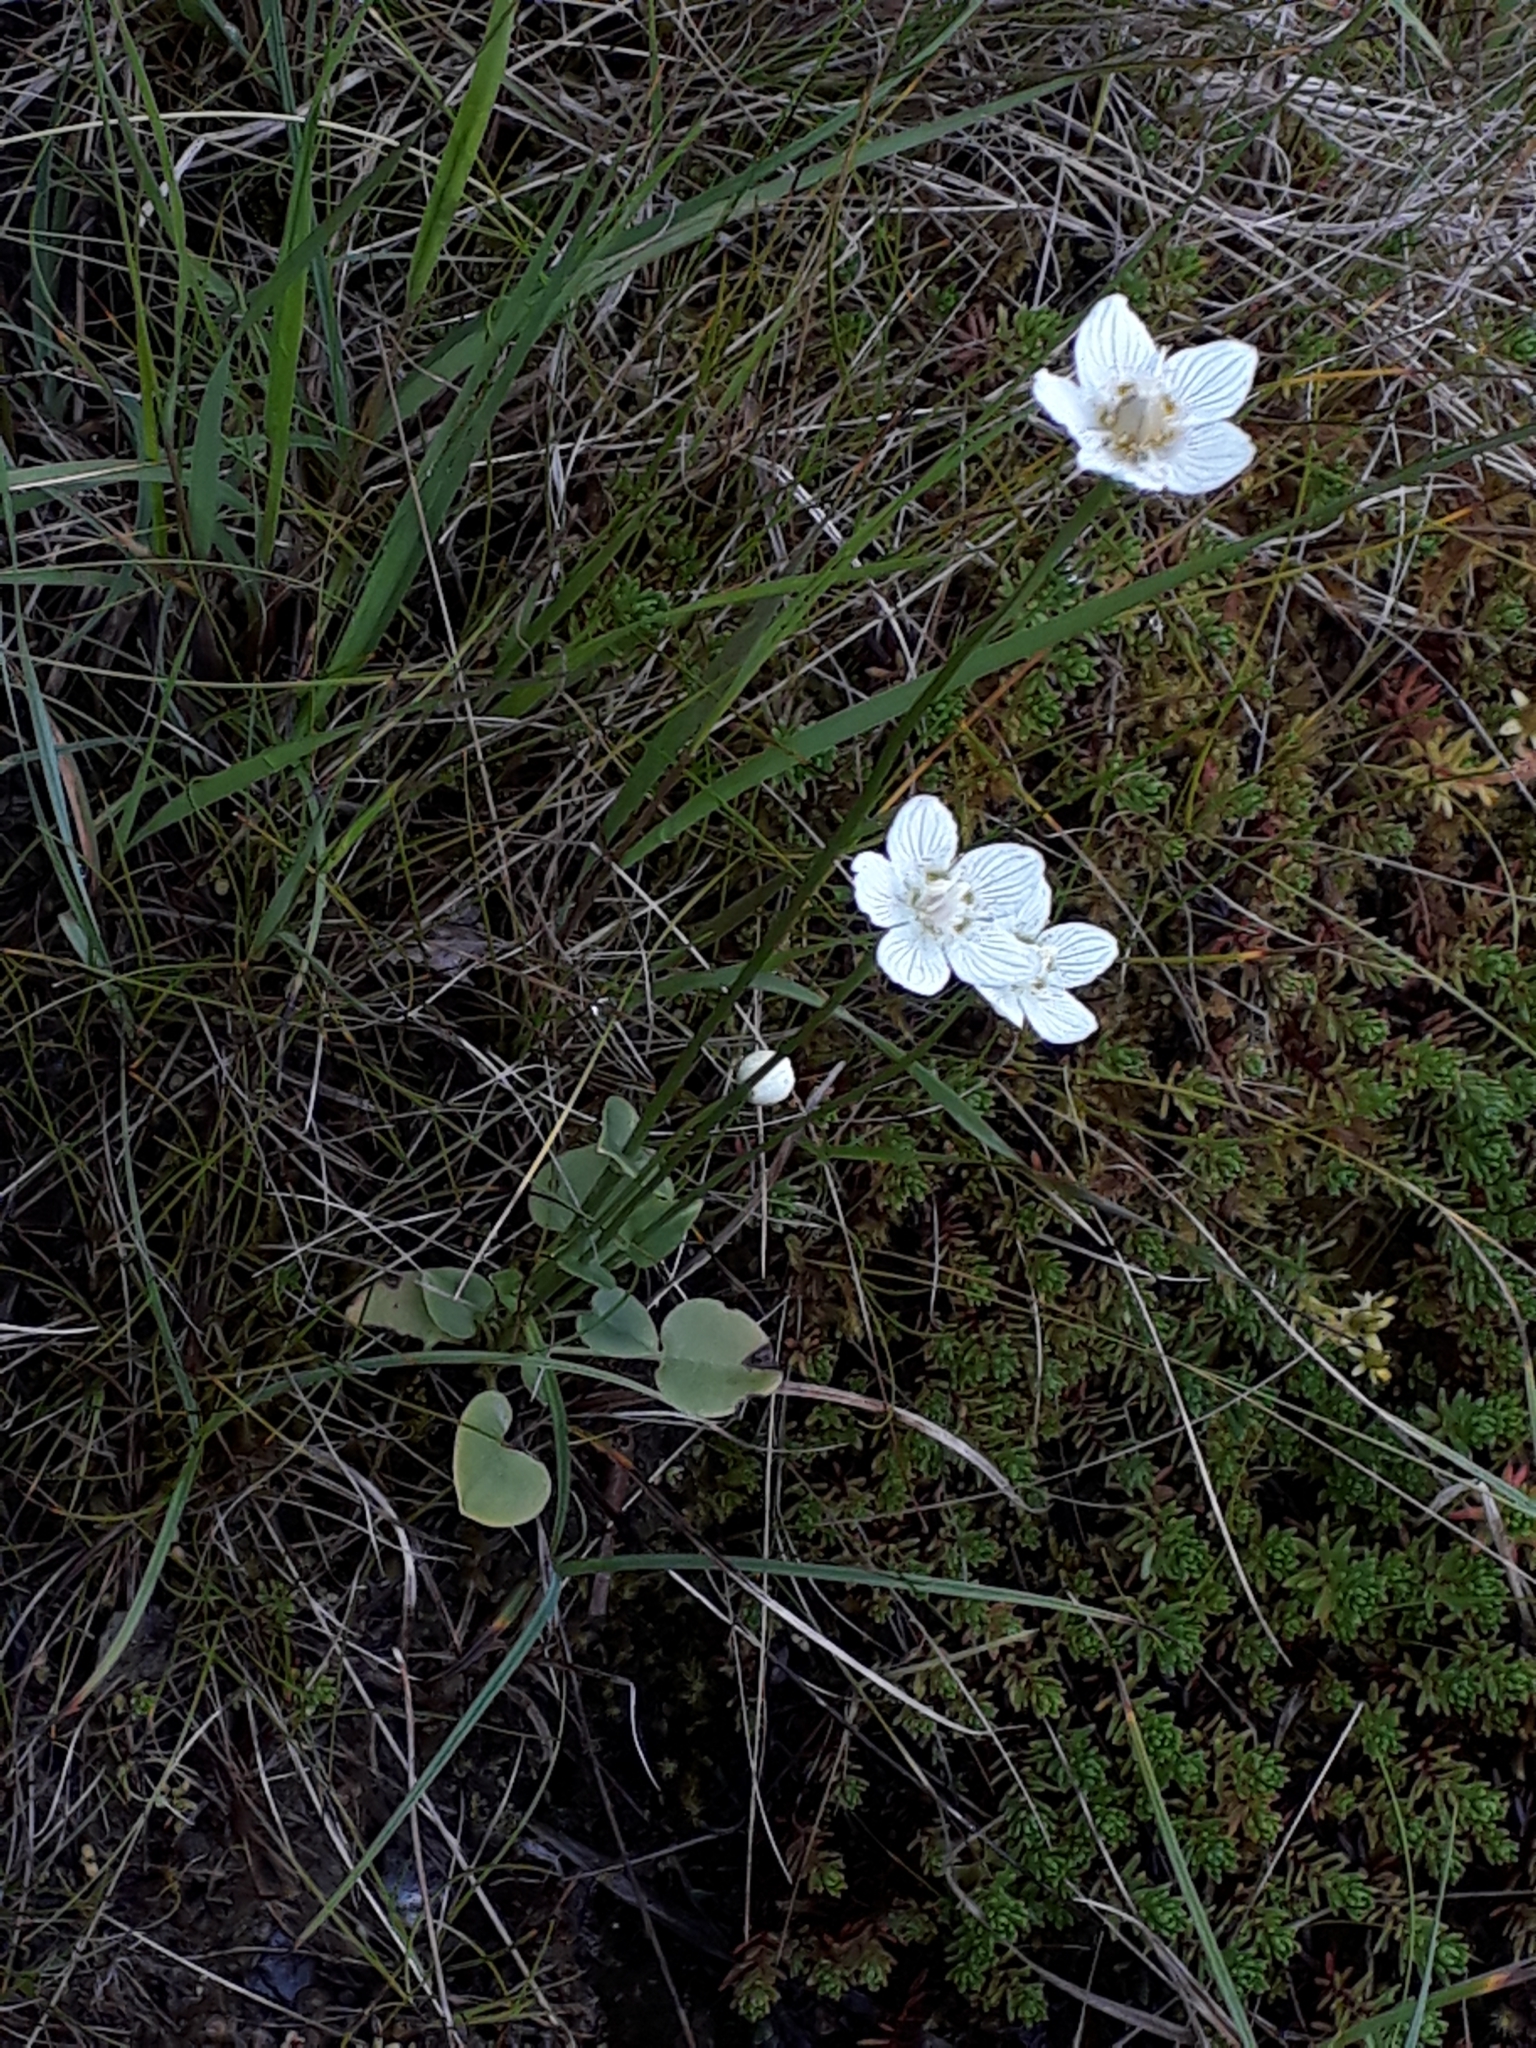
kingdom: Plantae
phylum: Tracheophyta
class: Magnoliopsida
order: Celastrales
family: Parnassiaceae
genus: Parnassia
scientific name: Parnassia palustris
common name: Grass-of-parnassus
